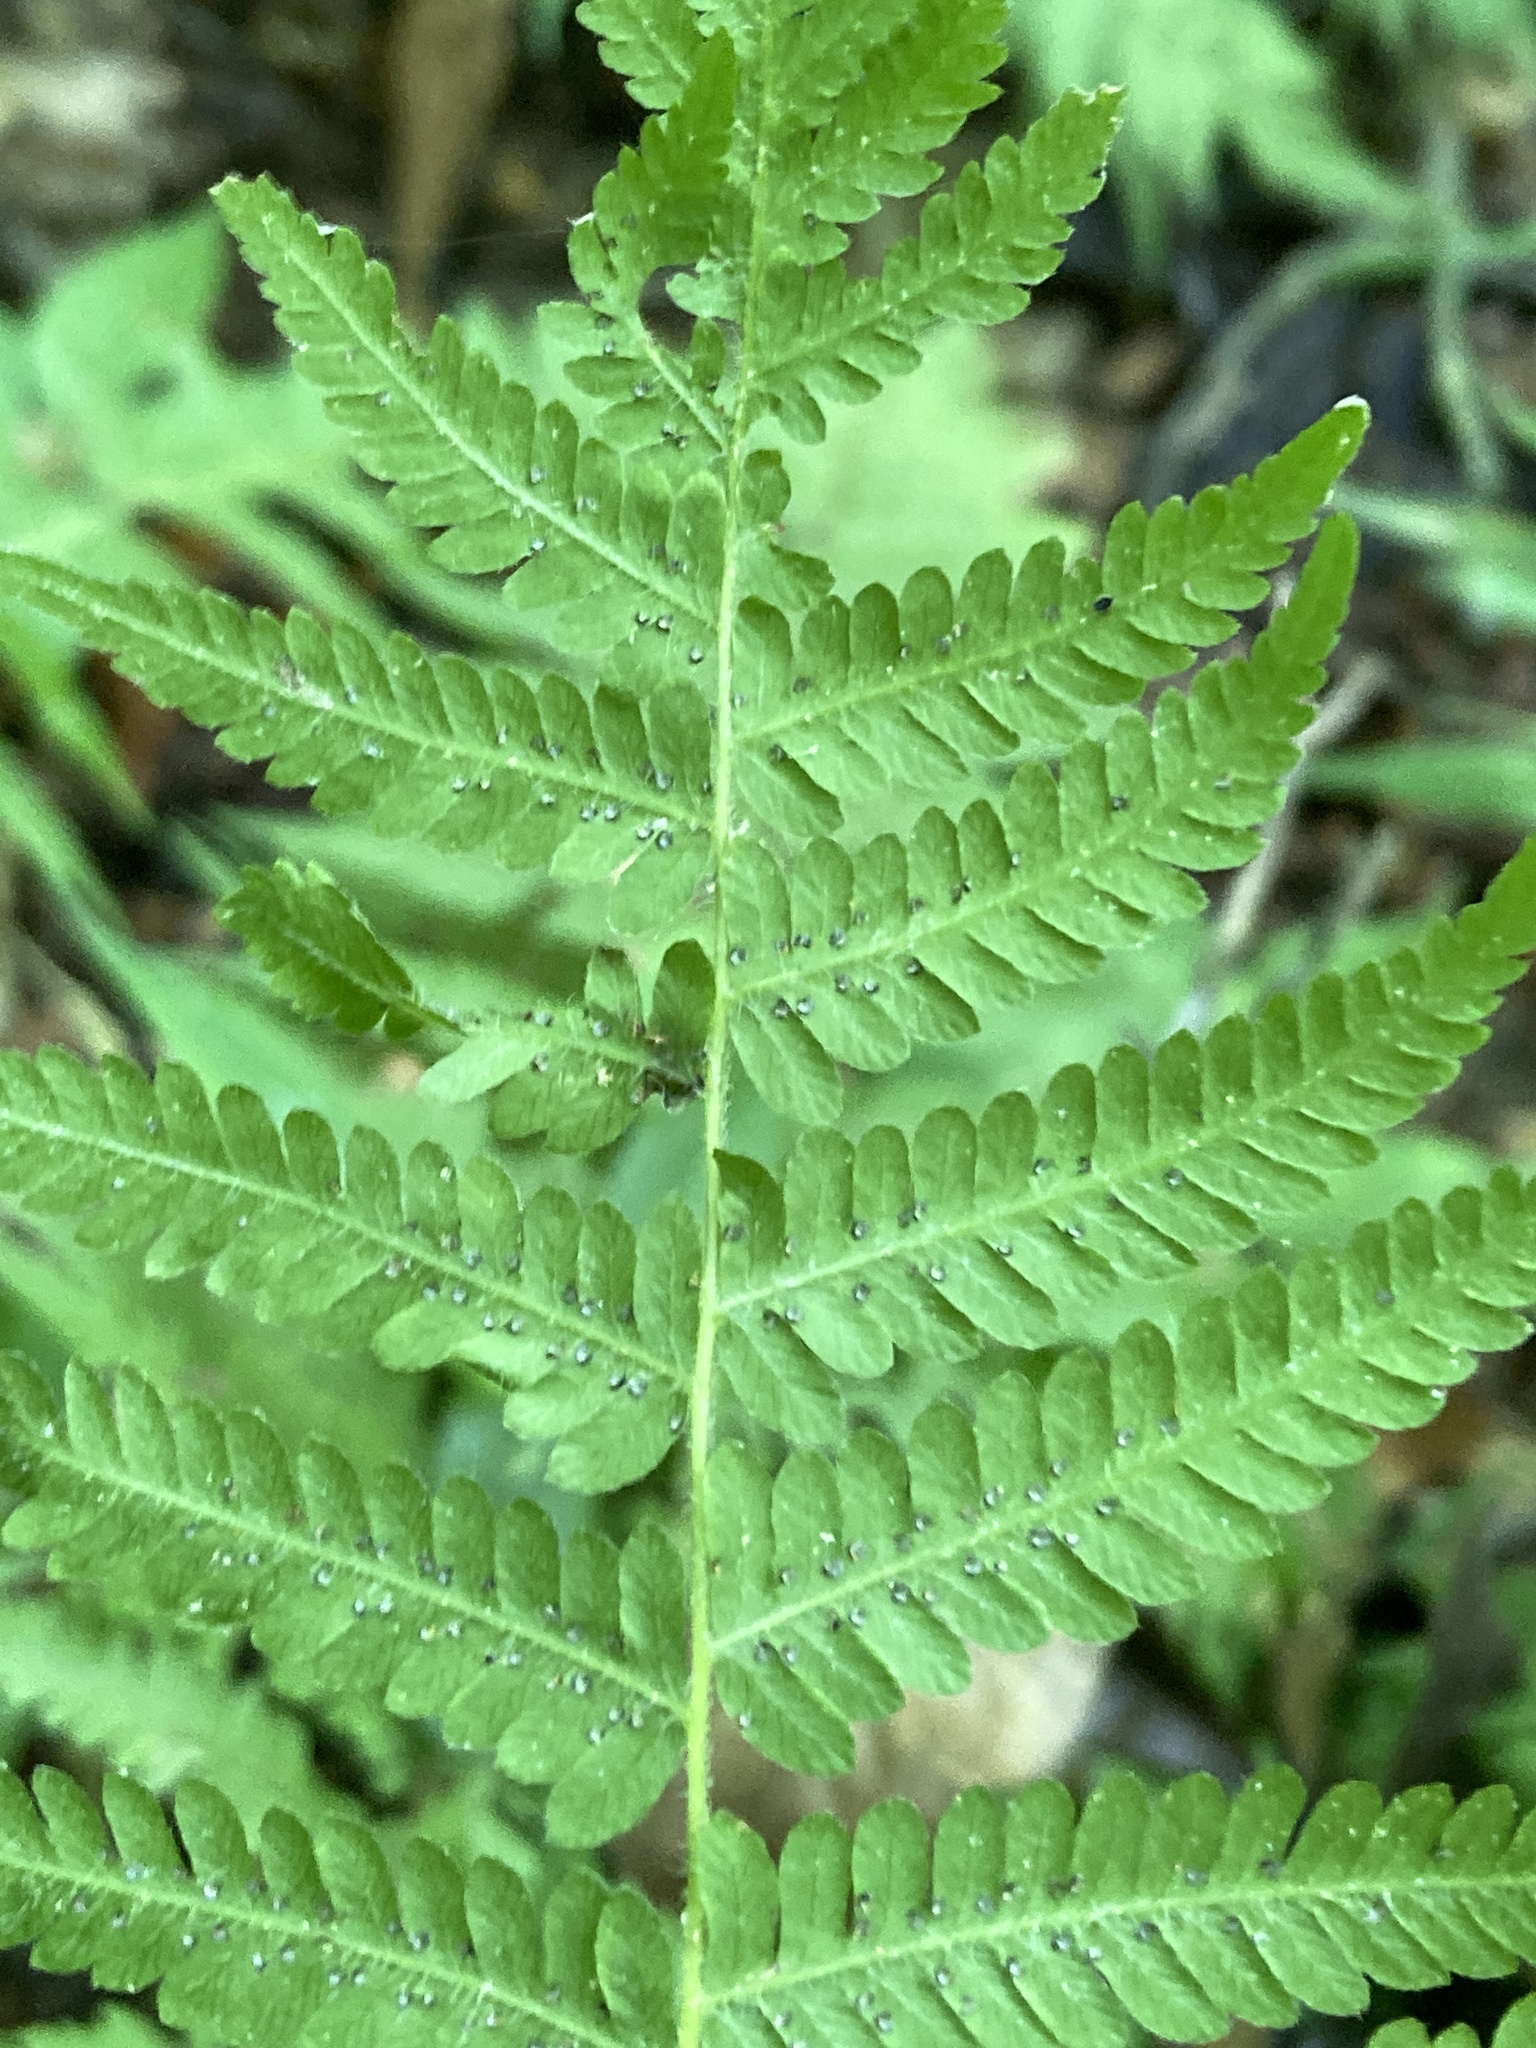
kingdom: Plantae
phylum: Tracheophyta
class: Polypodiopsida
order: Polypodiales
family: Thelypteridaceae
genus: Amauropelta
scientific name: Amauropelta noveboracensis
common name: New york fern
